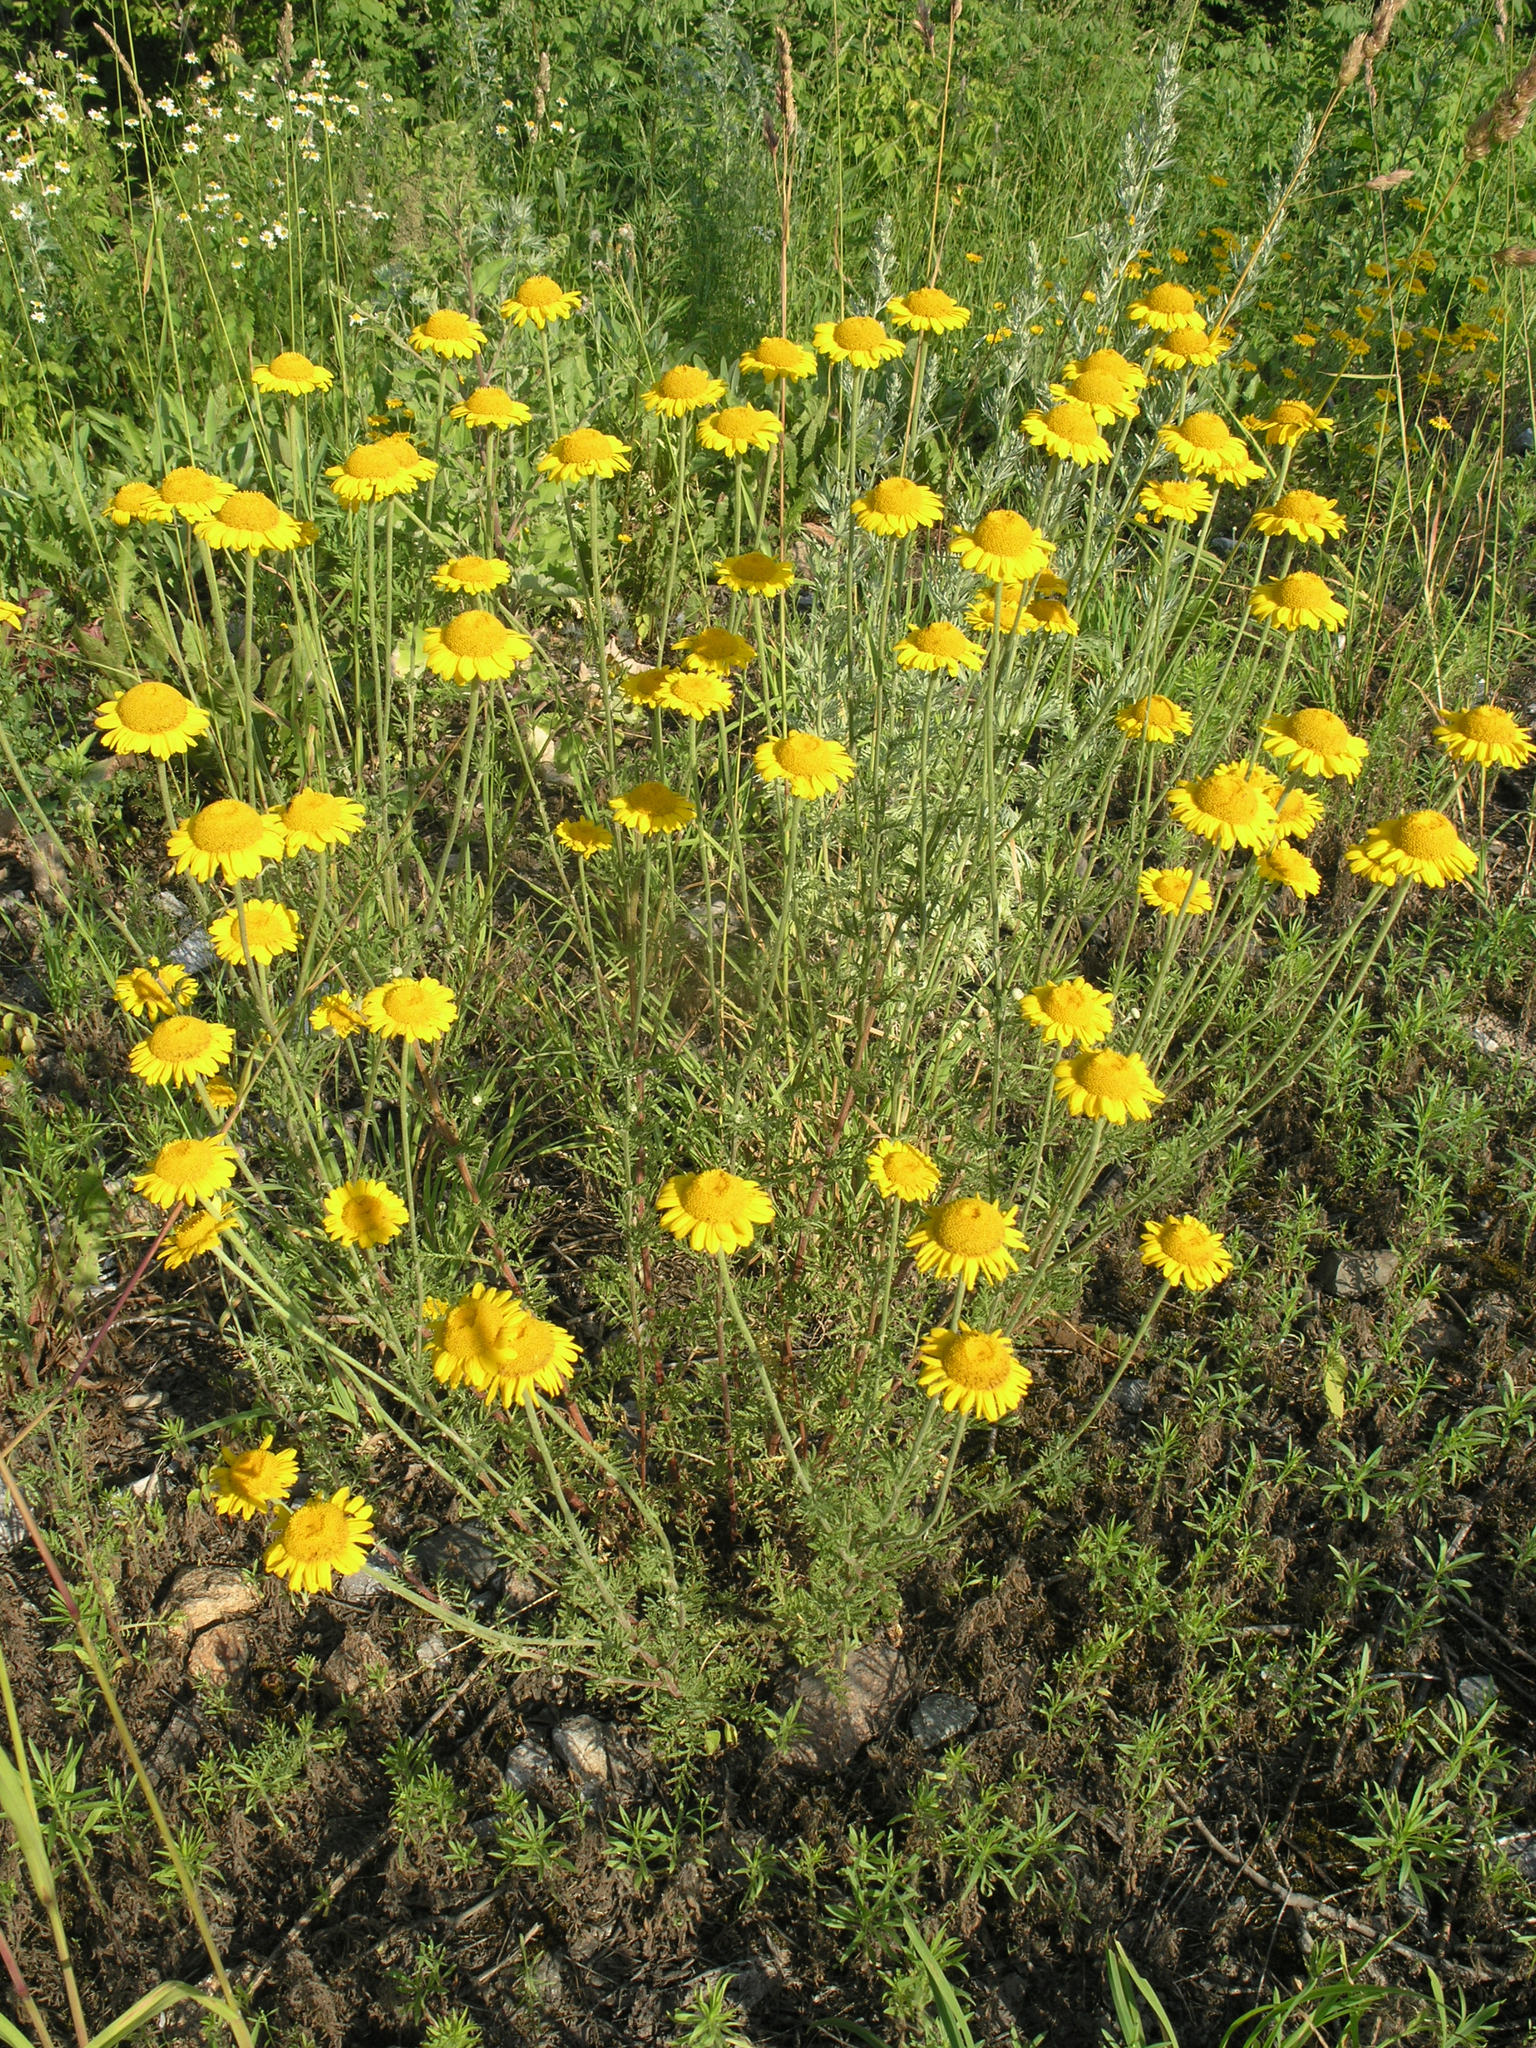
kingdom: Plantae
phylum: Tracheophyta
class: Magnoliopsida
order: Asterales
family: Asteraceae
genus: Cota
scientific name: Cota tinctoria
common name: Golden chamomile
